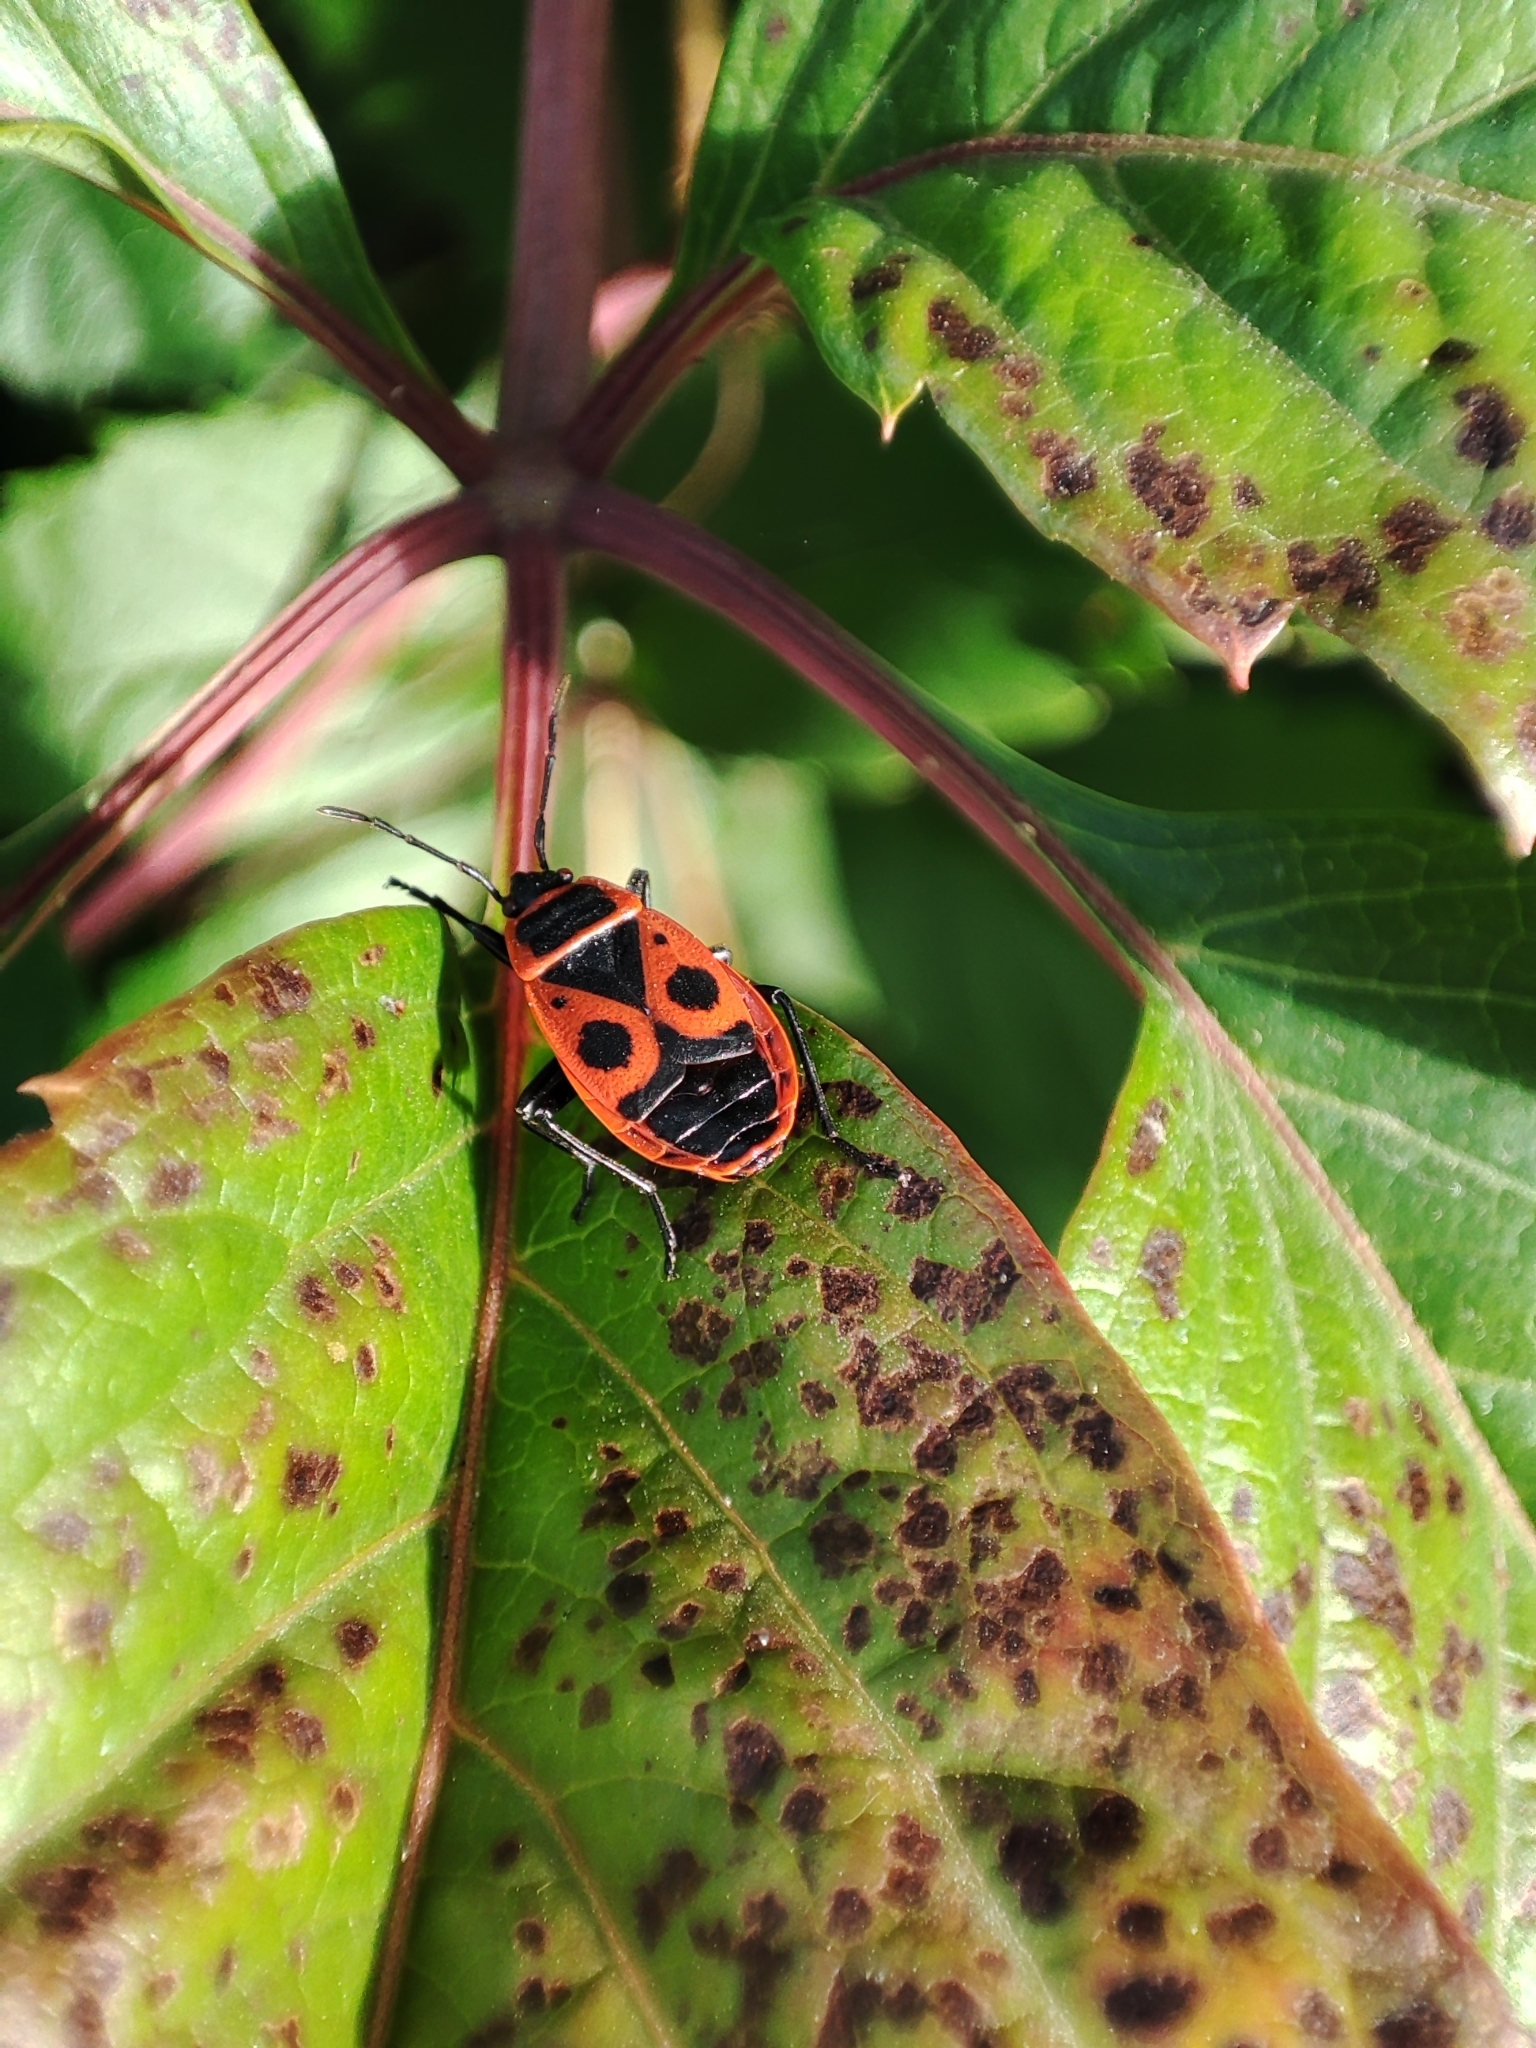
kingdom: Animalia
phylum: Arthropoda
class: Insecta
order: Hemiptera
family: Pyrrhocoridae
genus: Pyrrhocoris
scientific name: Pyrrhocoris apterus
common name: Firebug
